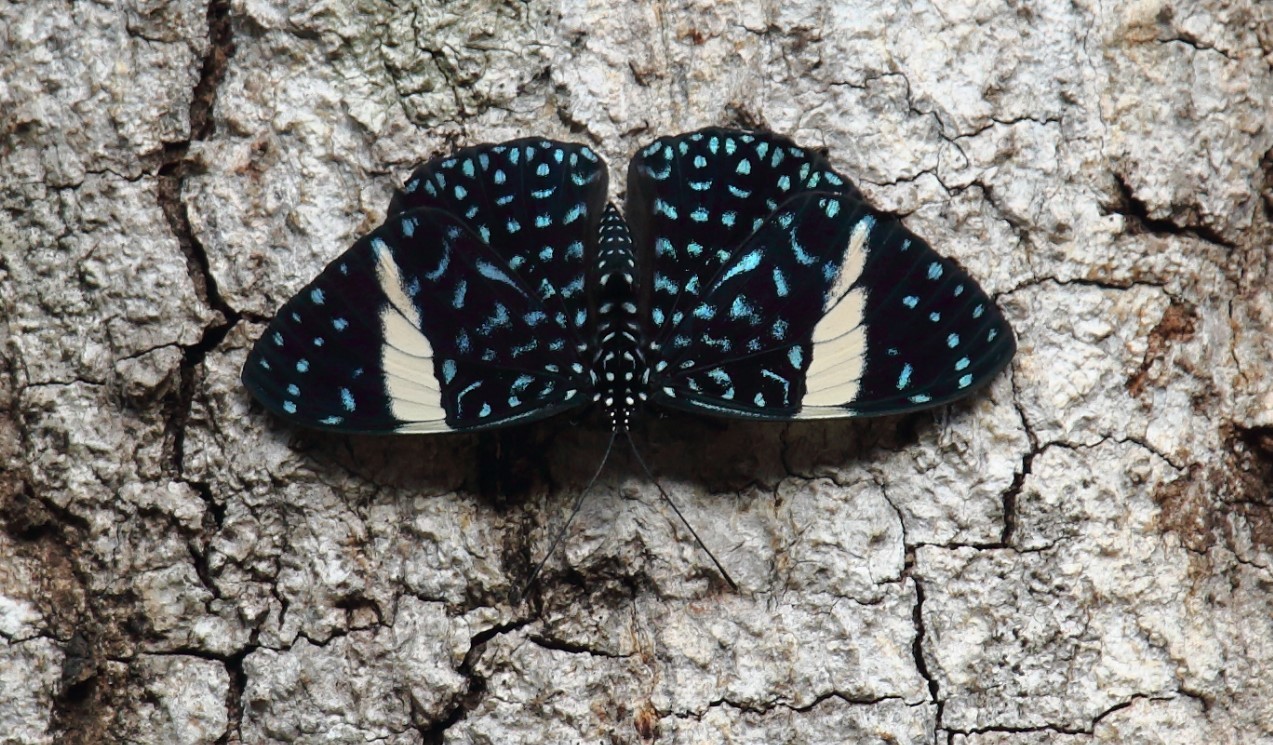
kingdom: Animalia
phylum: Arthropoda
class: Insecta
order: Lepidoptera
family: Nymphalidae
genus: Hamadryas
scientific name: Hamadryas laodamia
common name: Starry night cracker
